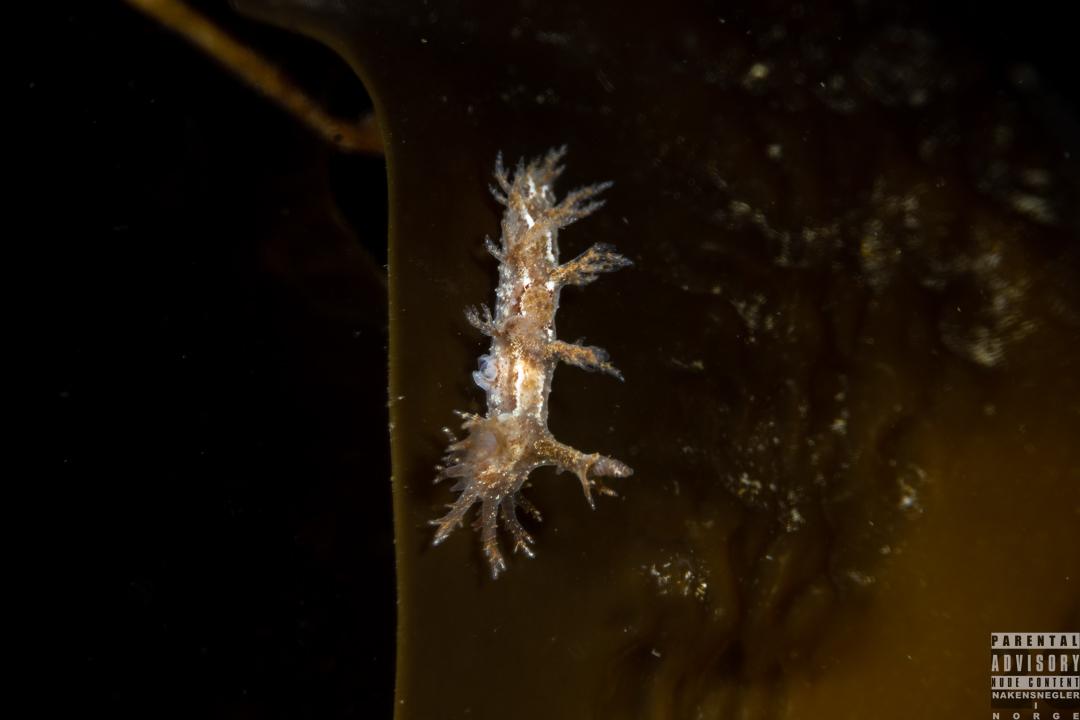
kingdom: Animalia
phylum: Mollusca
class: Gastropoda
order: Nudibranchia
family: Dendronotidae
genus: Dendronotus
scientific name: Dendronotus frondosus
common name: Bushy-backed nudibranch
